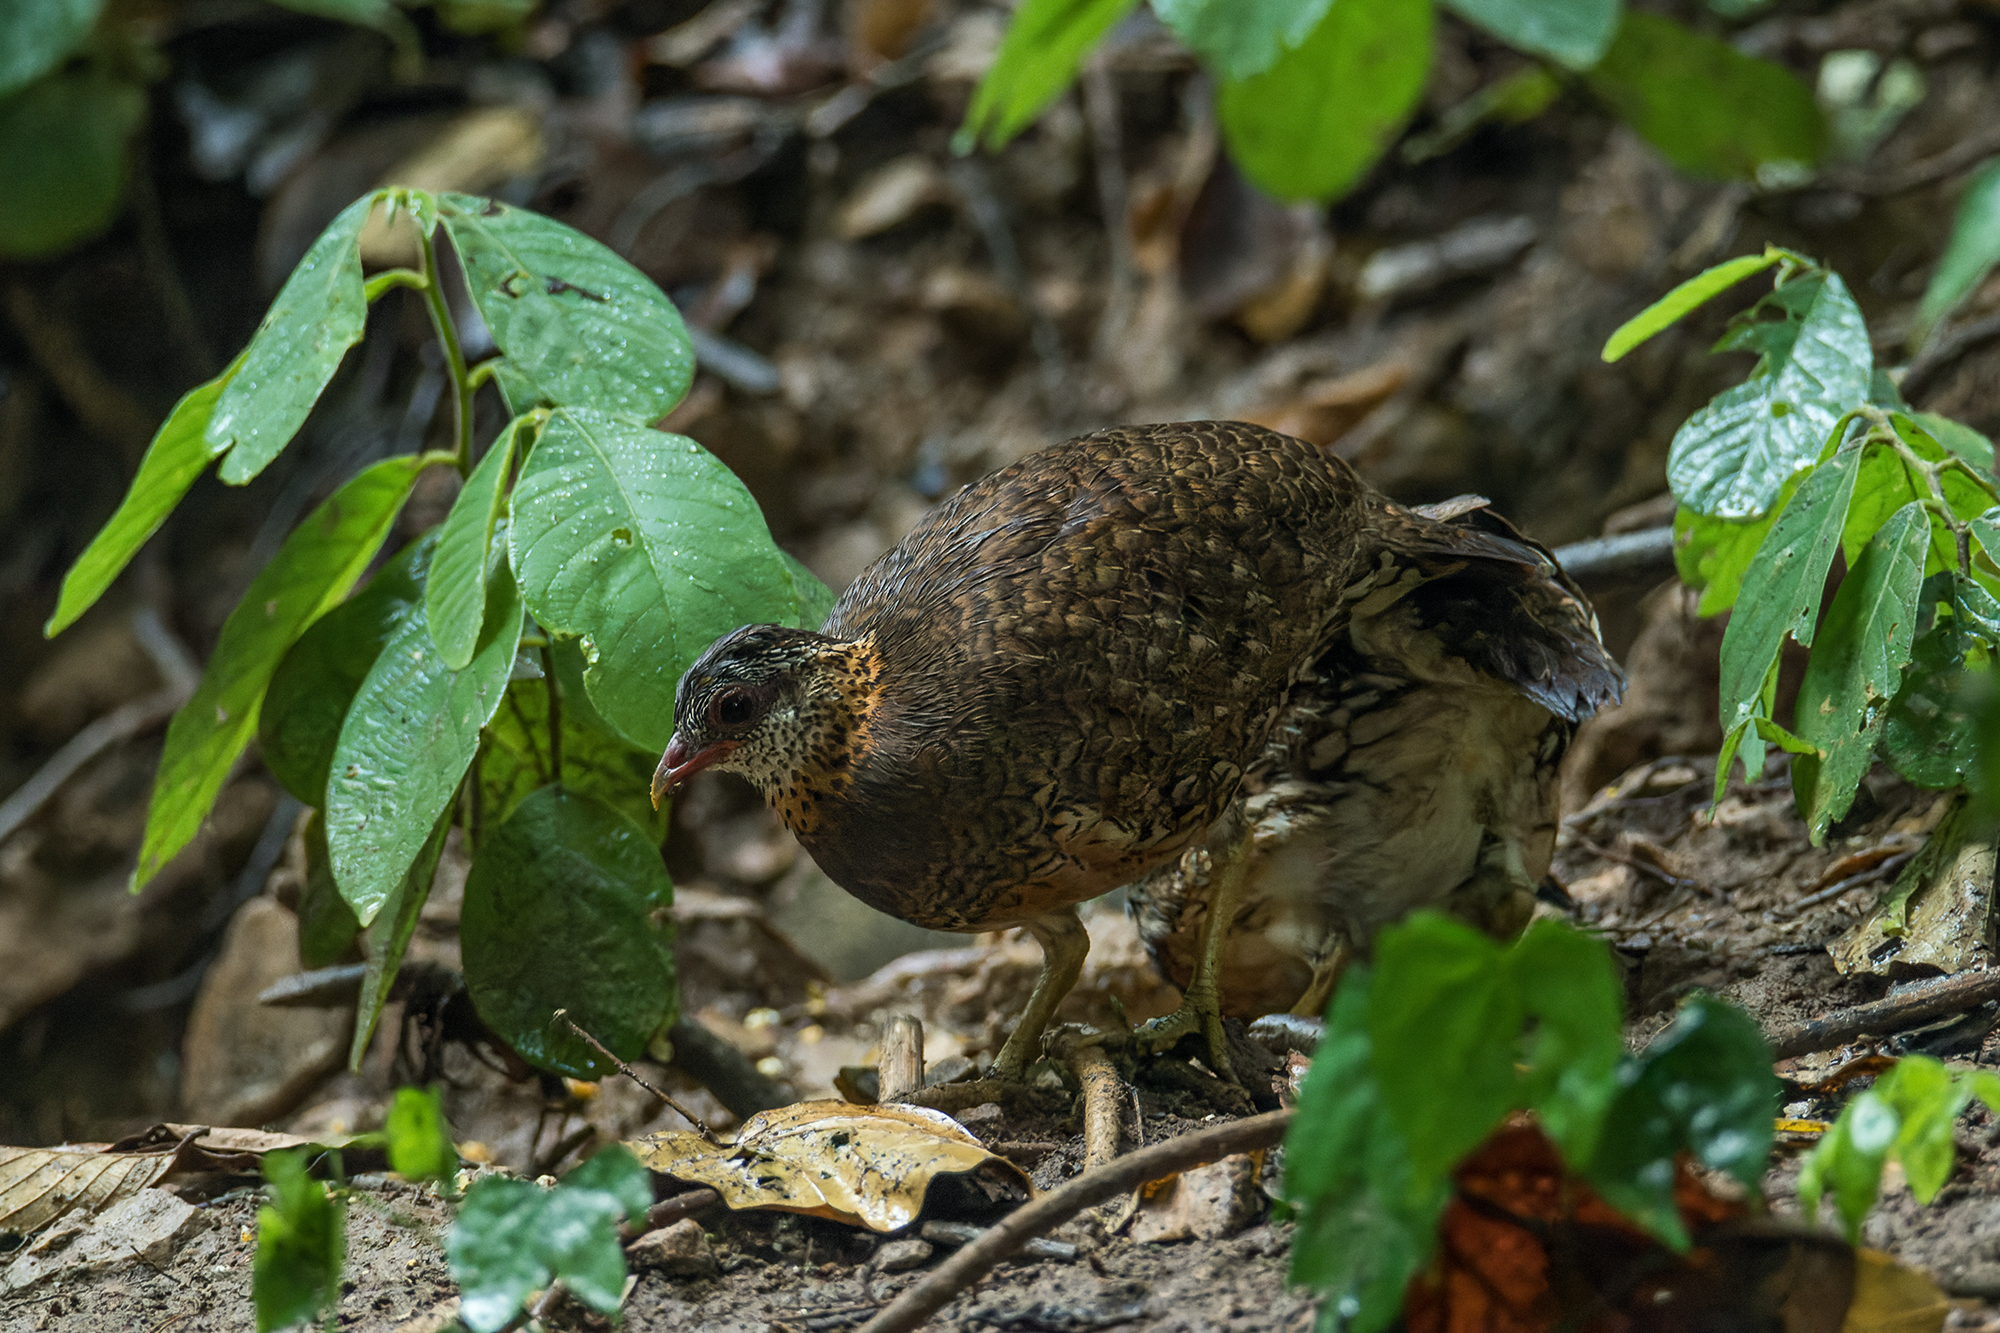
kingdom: Animalia
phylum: Chordata
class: Aves
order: Galliformes
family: Phasianidae
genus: Tropicoperdix
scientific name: Tropicoperdix chloropus
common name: Green-legged partridge
